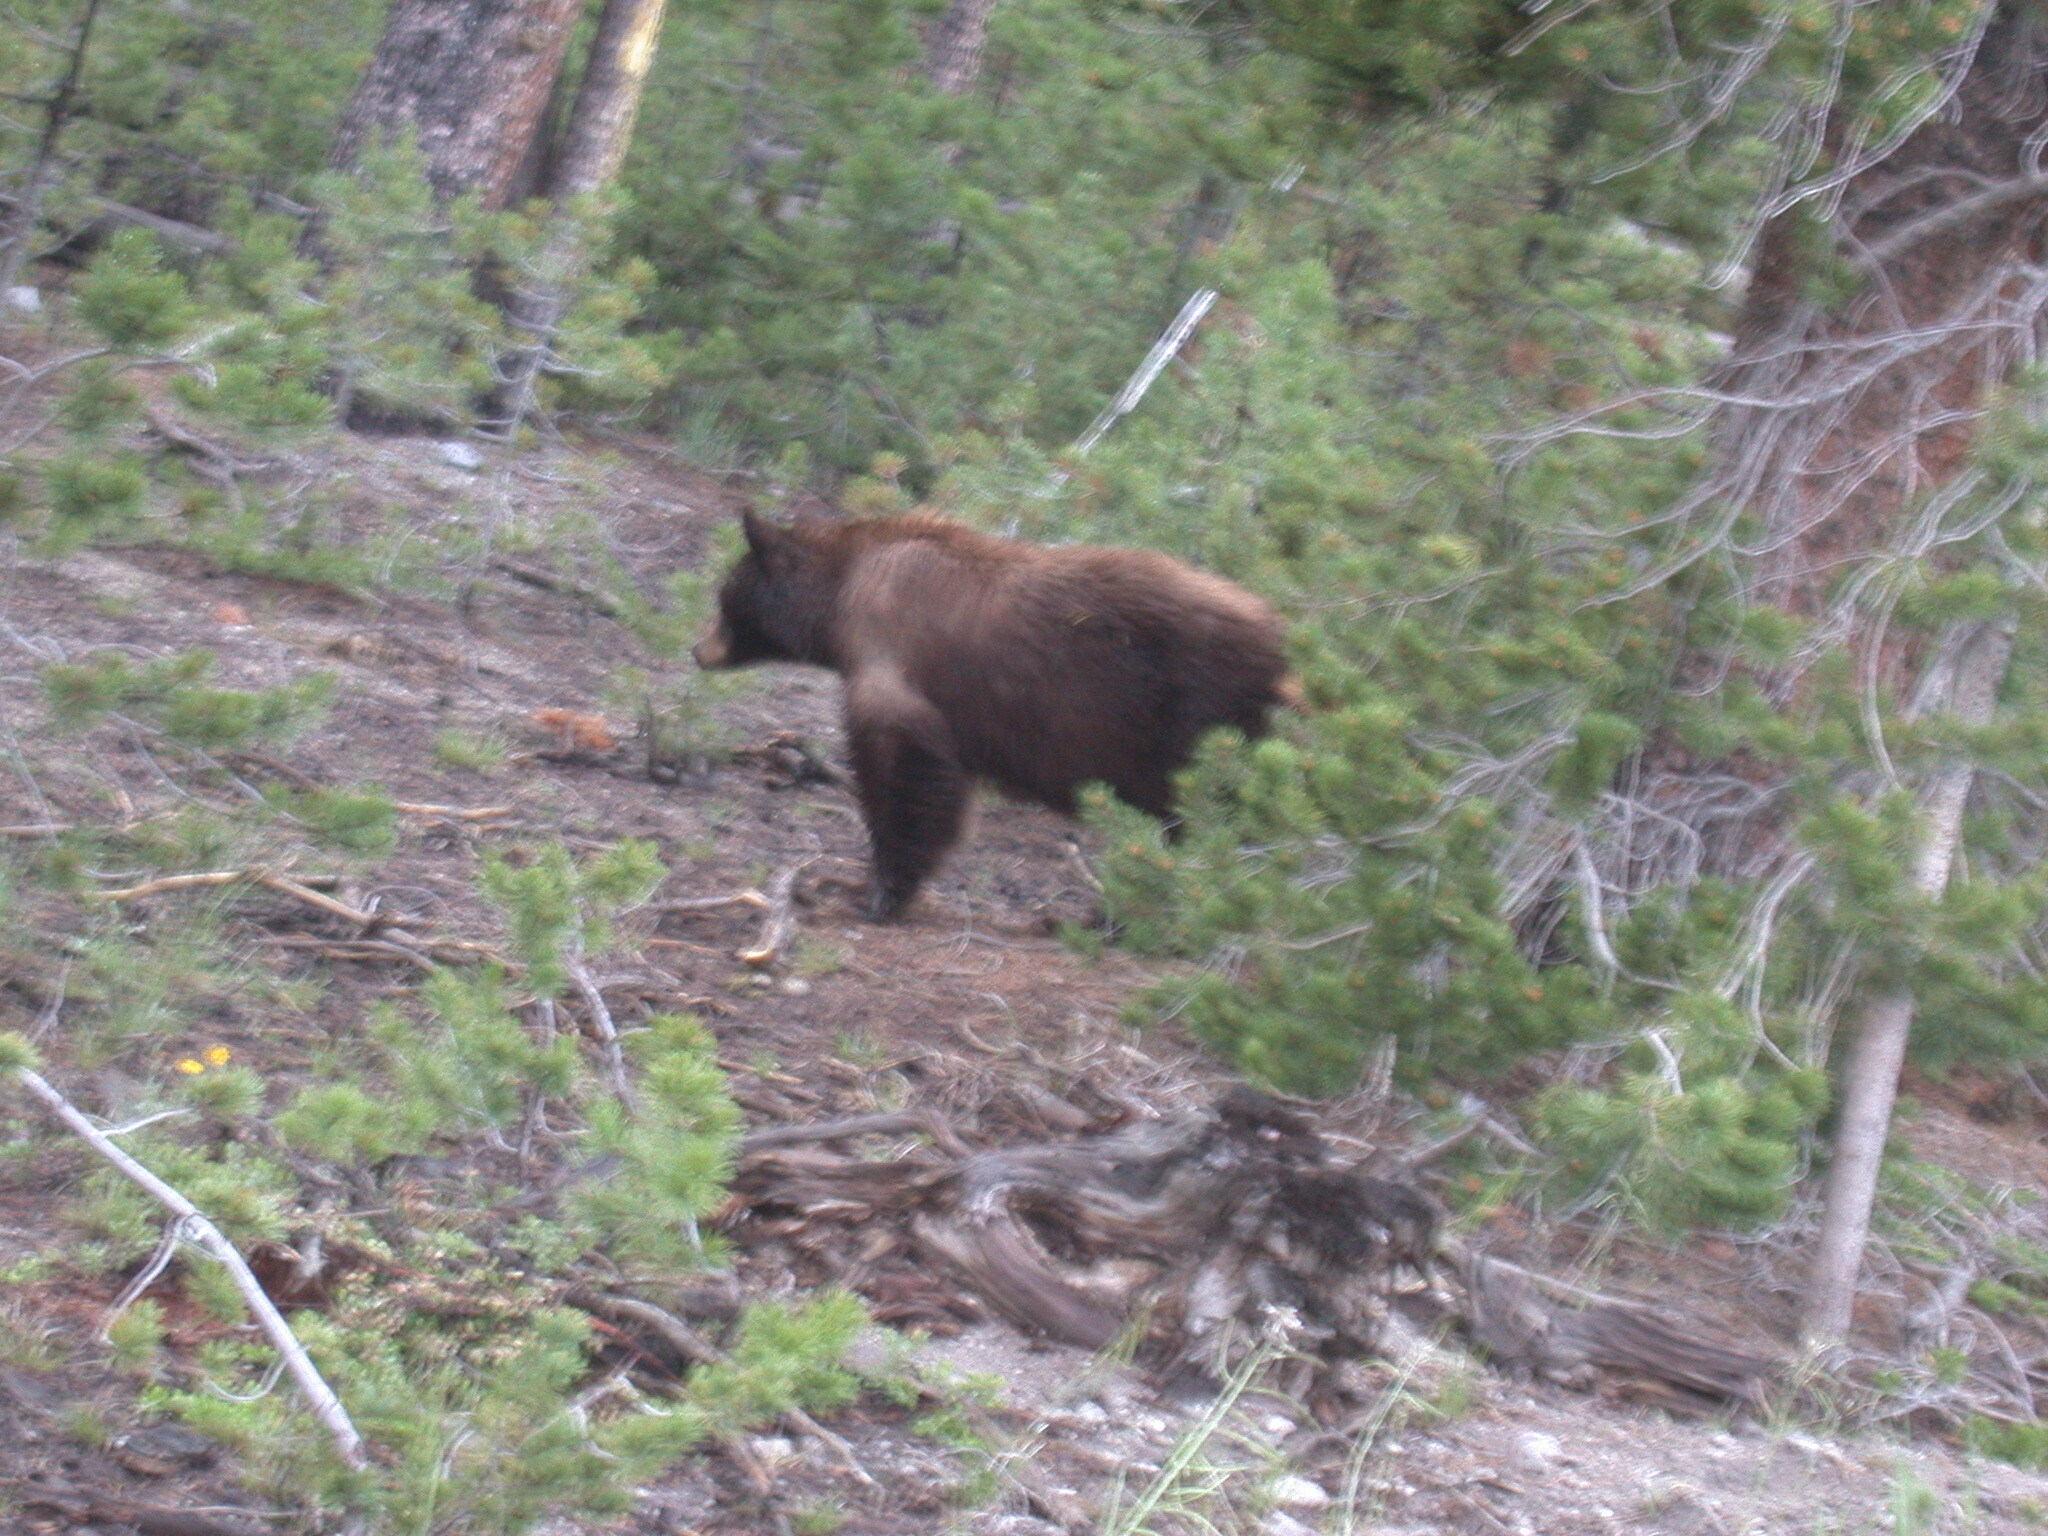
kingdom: Animalia
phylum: Chordata
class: Mammalia
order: Carnivora
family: Ursidae
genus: Ursus
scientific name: Ursus americanus
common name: American black bear
